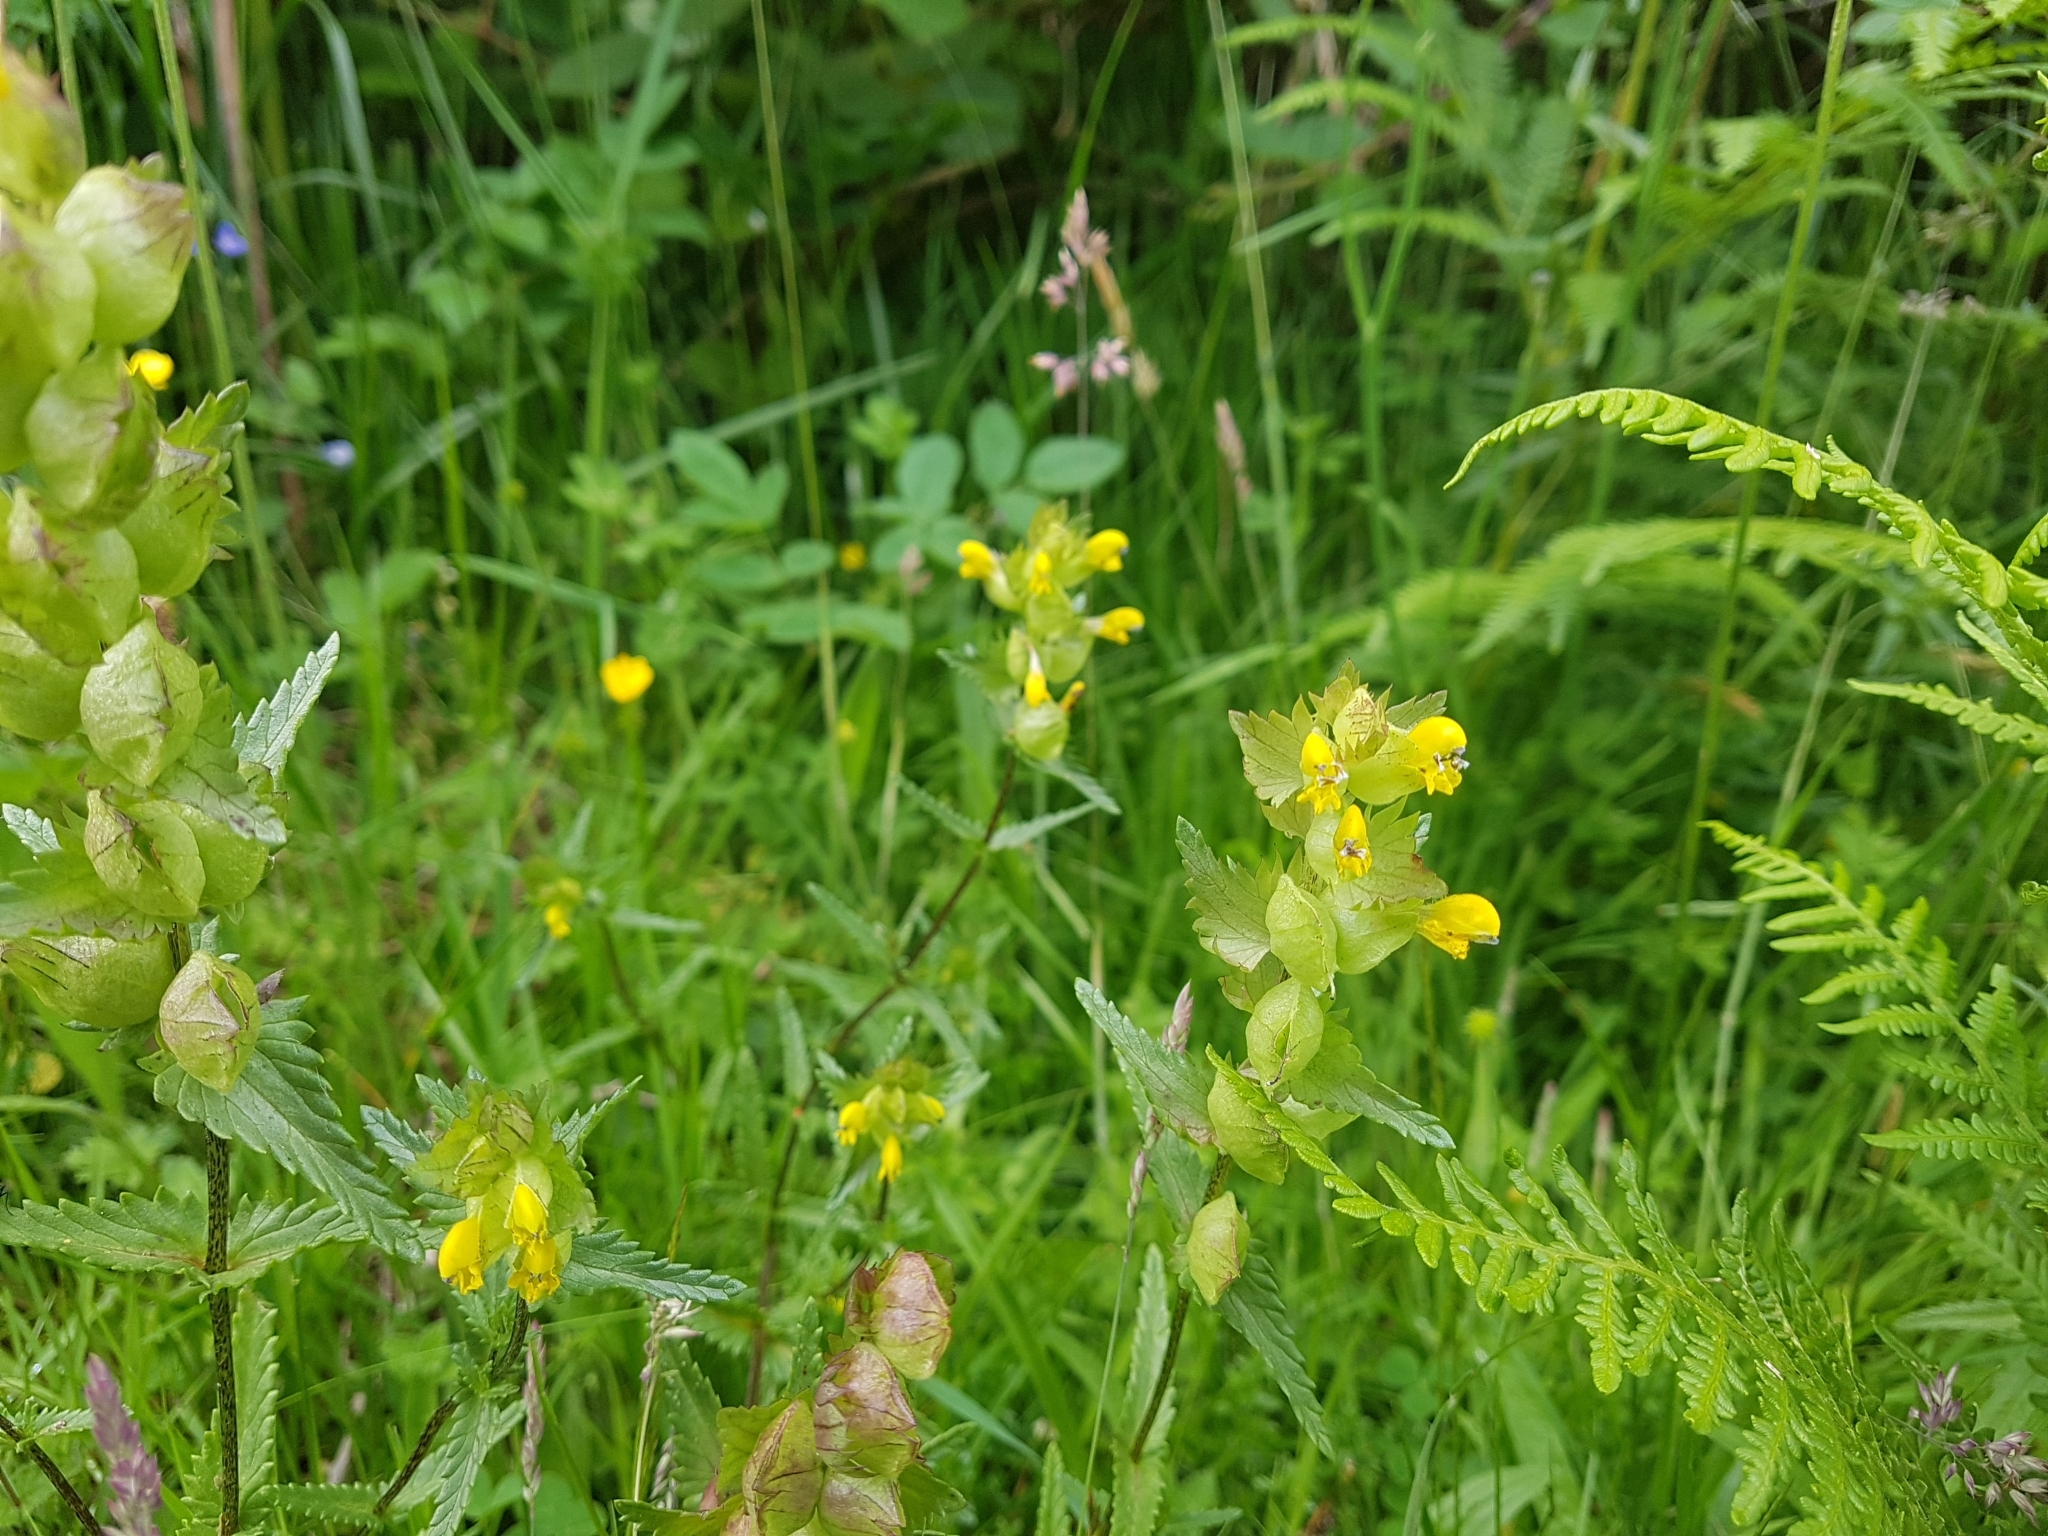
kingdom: Plantae
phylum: Tracheophyta
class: Magnoliopsida
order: Lamiales
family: Orobanchaceae
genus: Rhinanthus
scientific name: Rhinanthus minor
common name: Yellow-rattle
